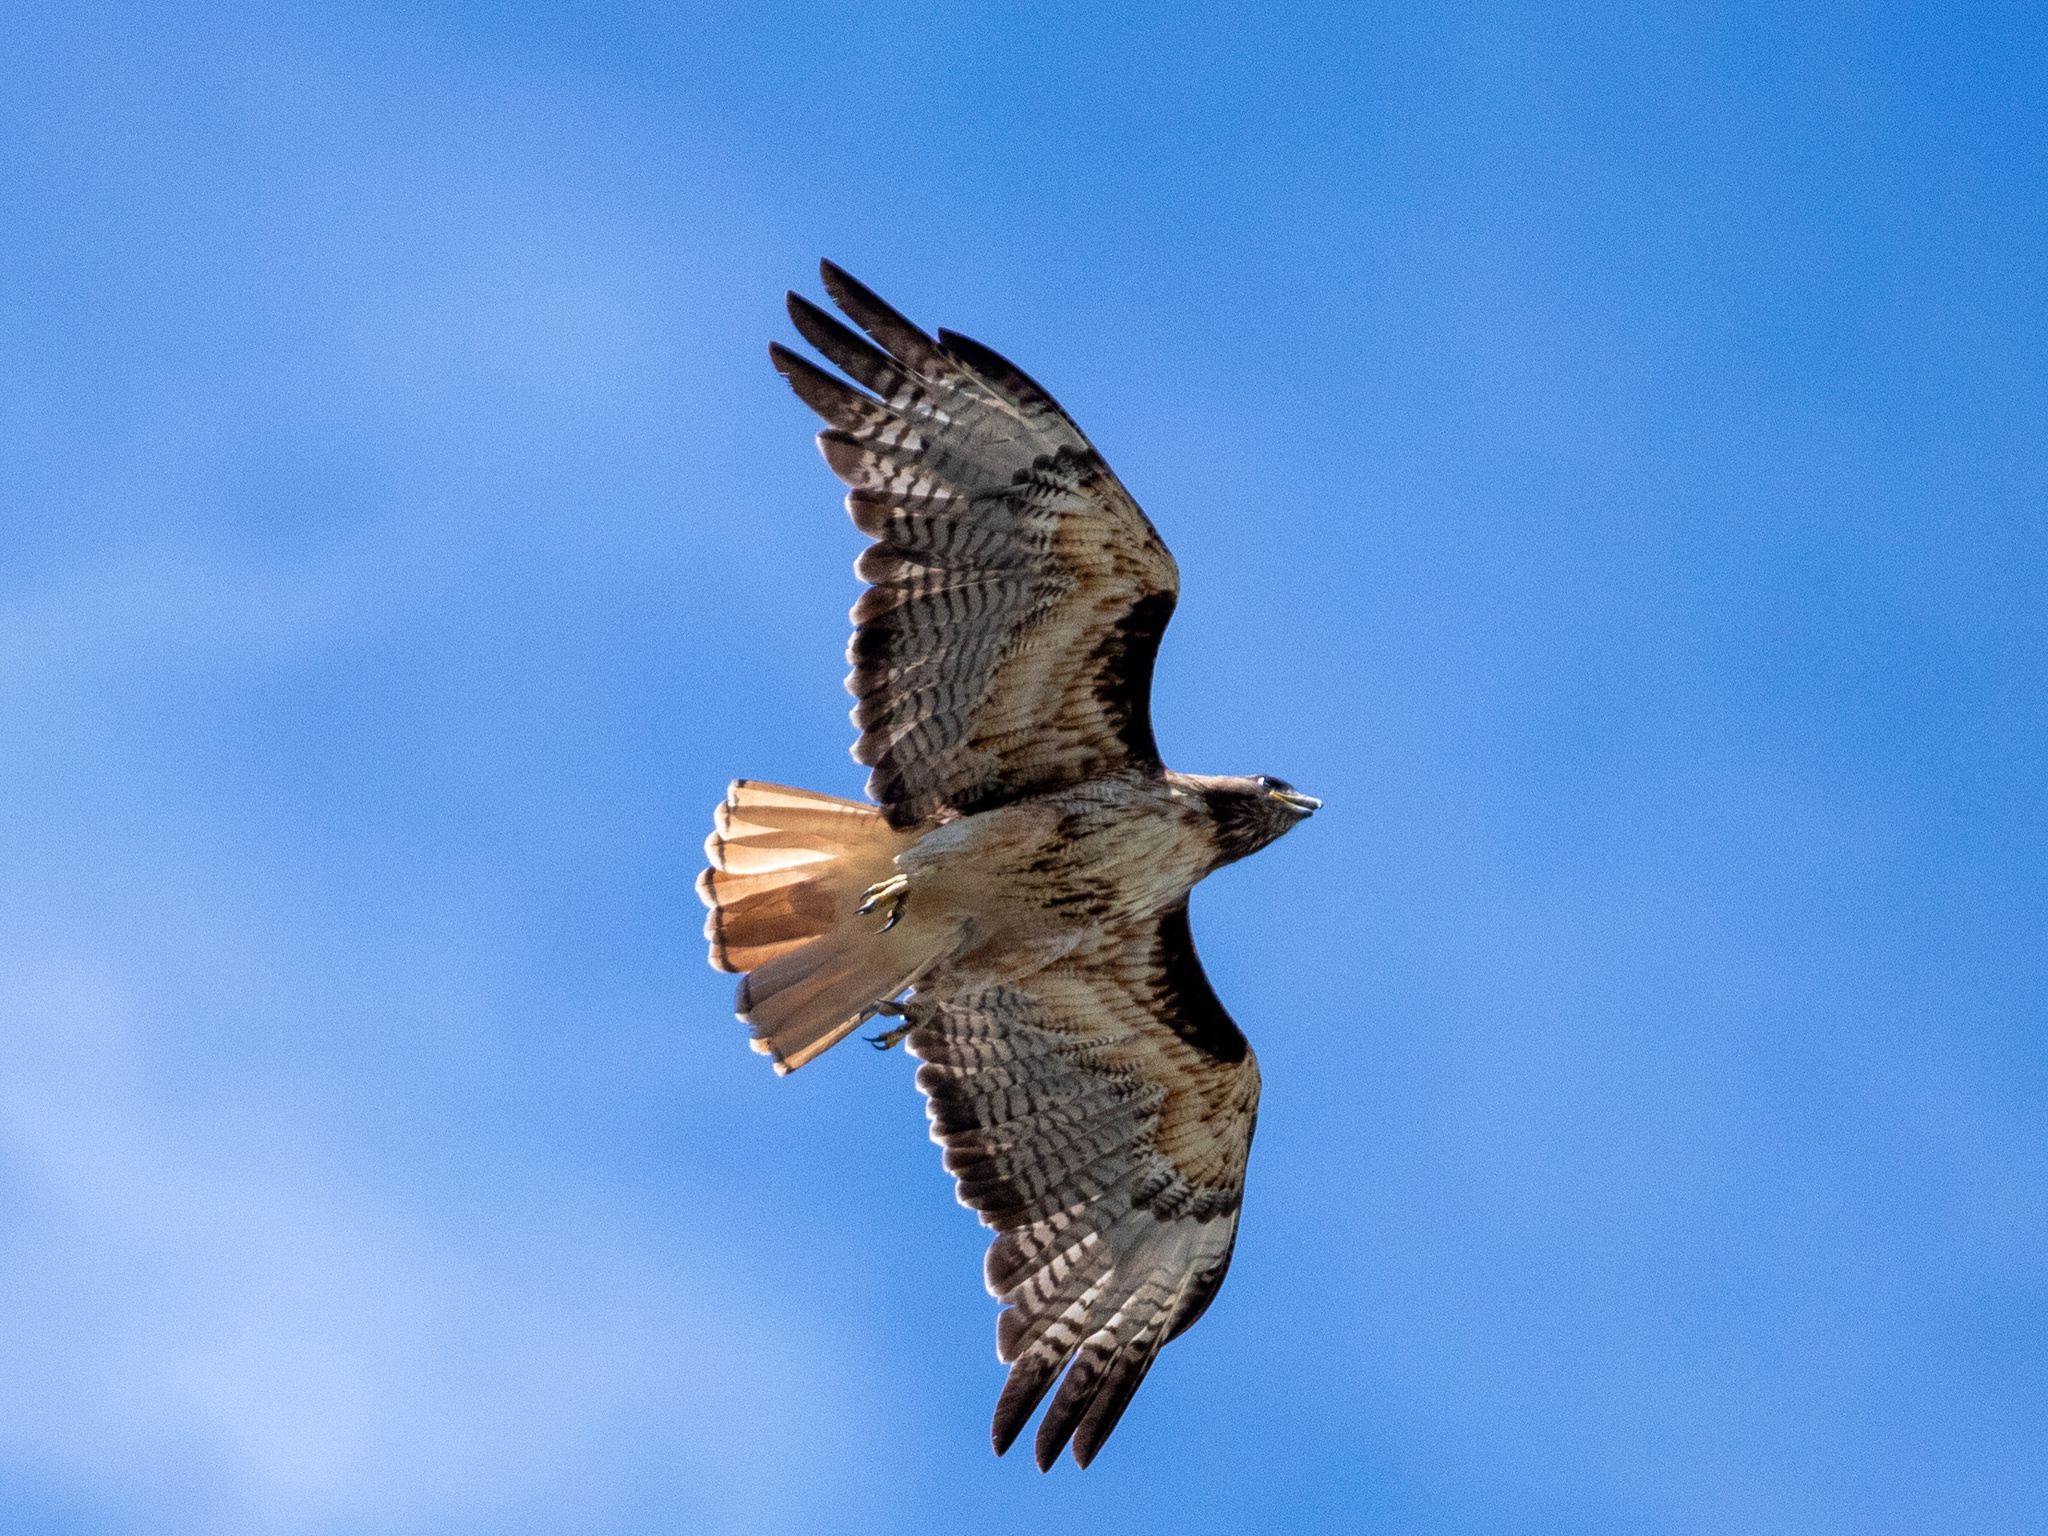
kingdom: Animalia
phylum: Chordata
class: Aves
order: Accipitriformes
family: Accipitridae
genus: Buteo
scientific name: Buteo jamaicensis
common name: Red-tailed hawk
